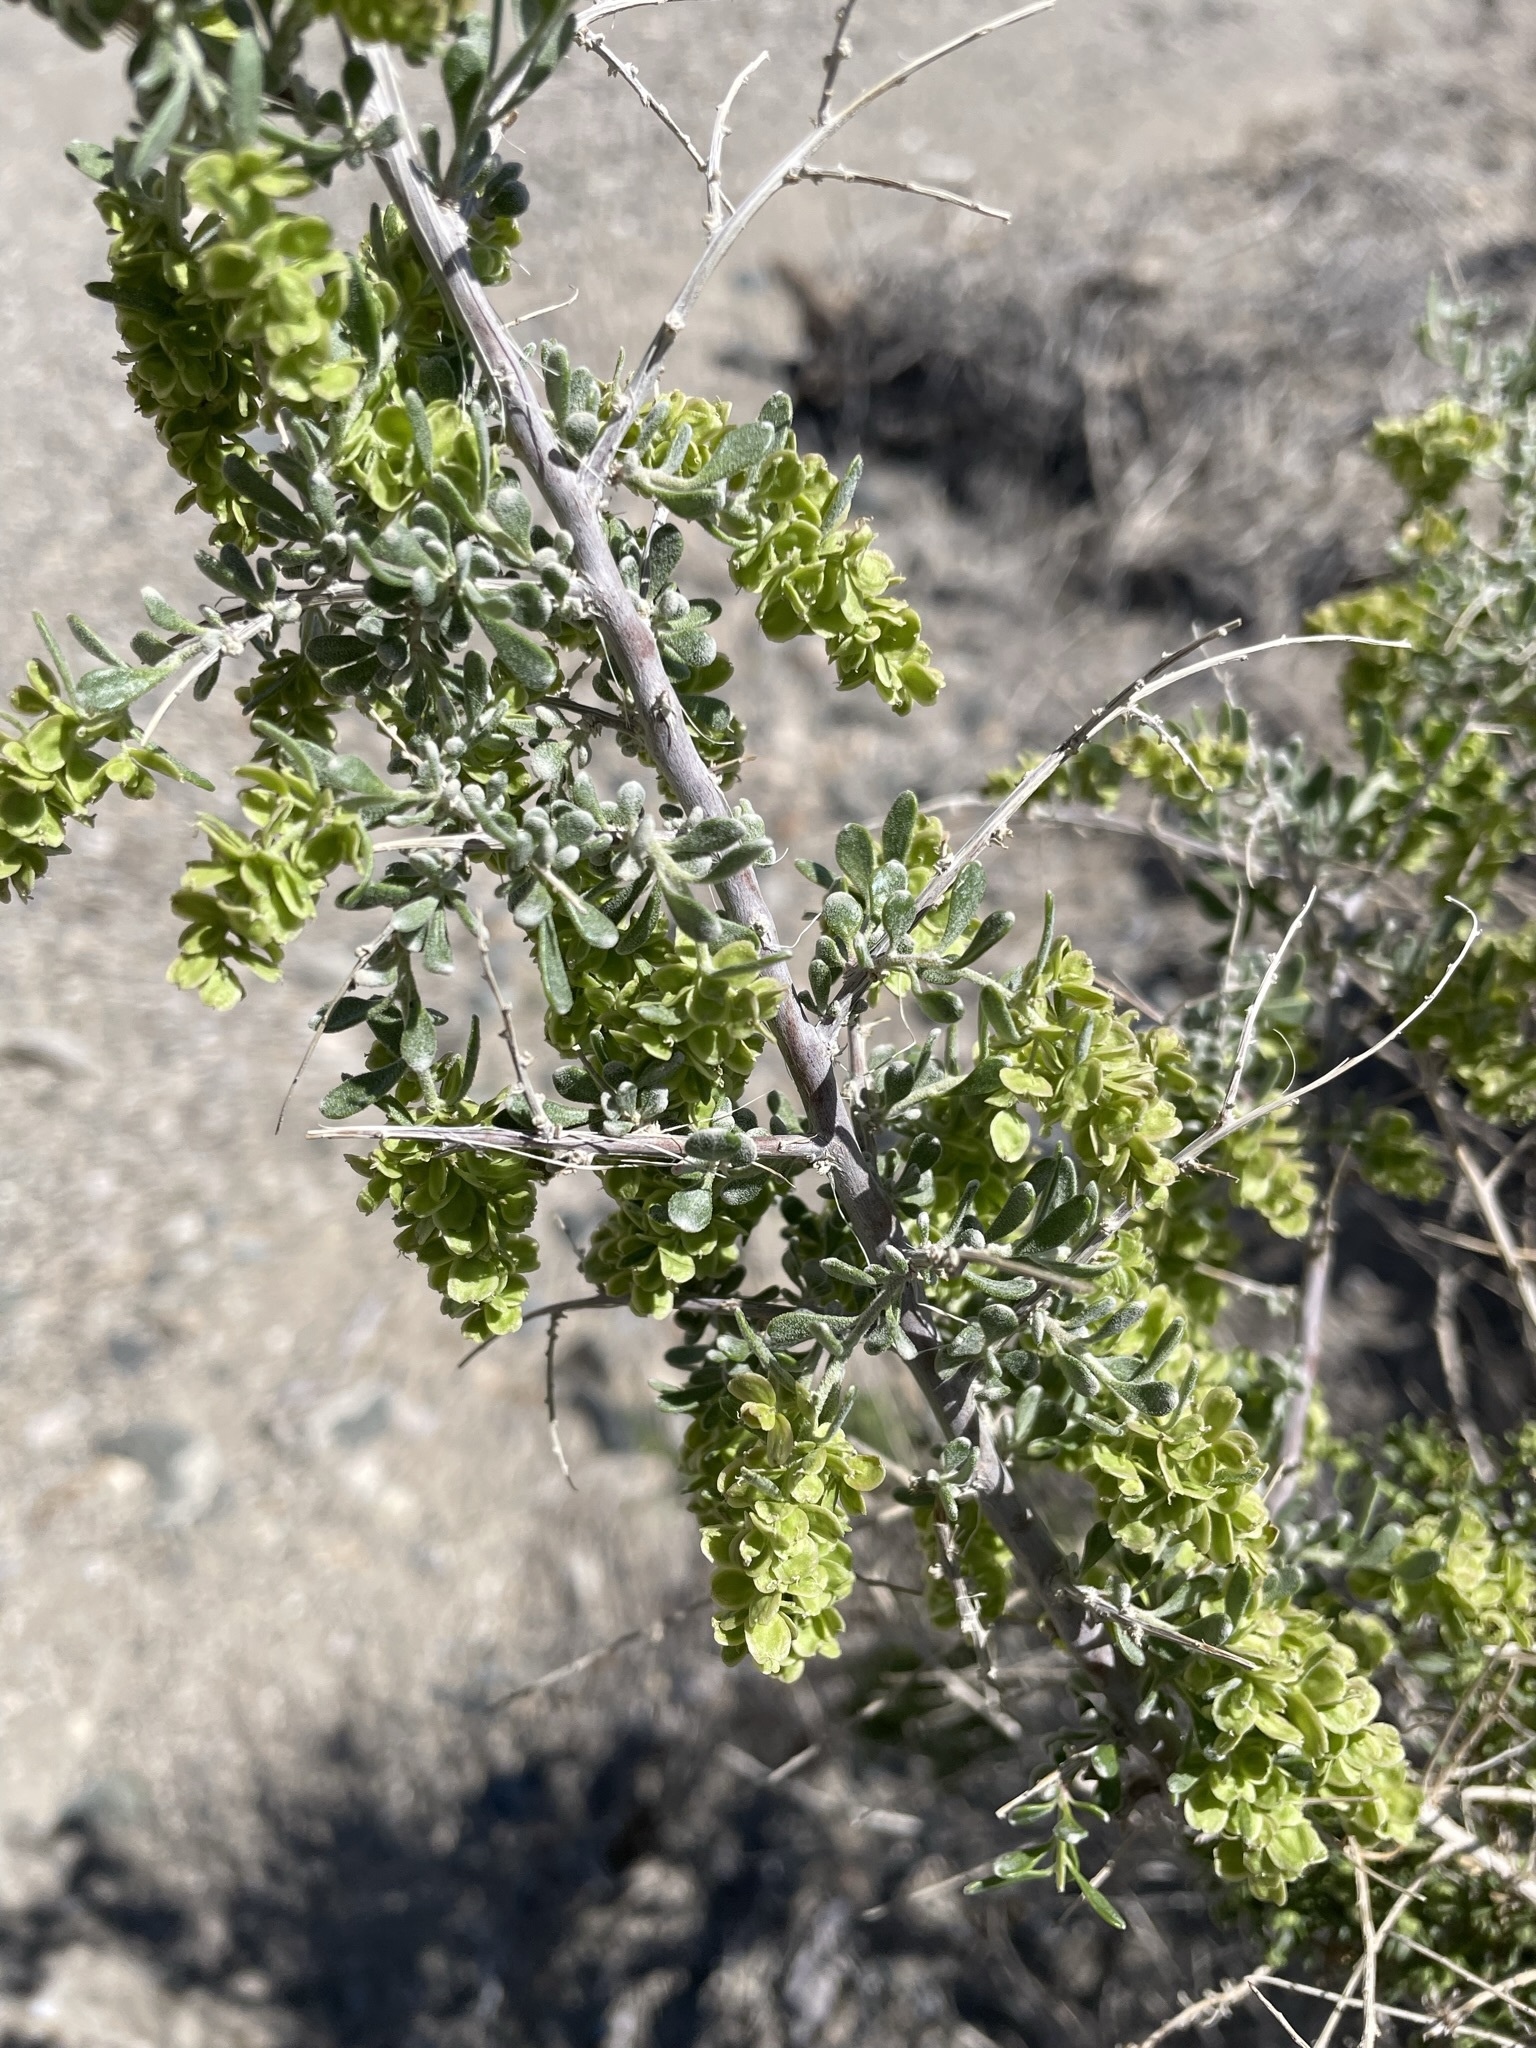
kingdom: Plantae
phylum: Tracheophyta
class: Magnoliopsida
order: Caryophyllales
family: Amaranthaceae
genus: Grayia
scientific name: Grayia spinosa
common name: Spiny hopsage
